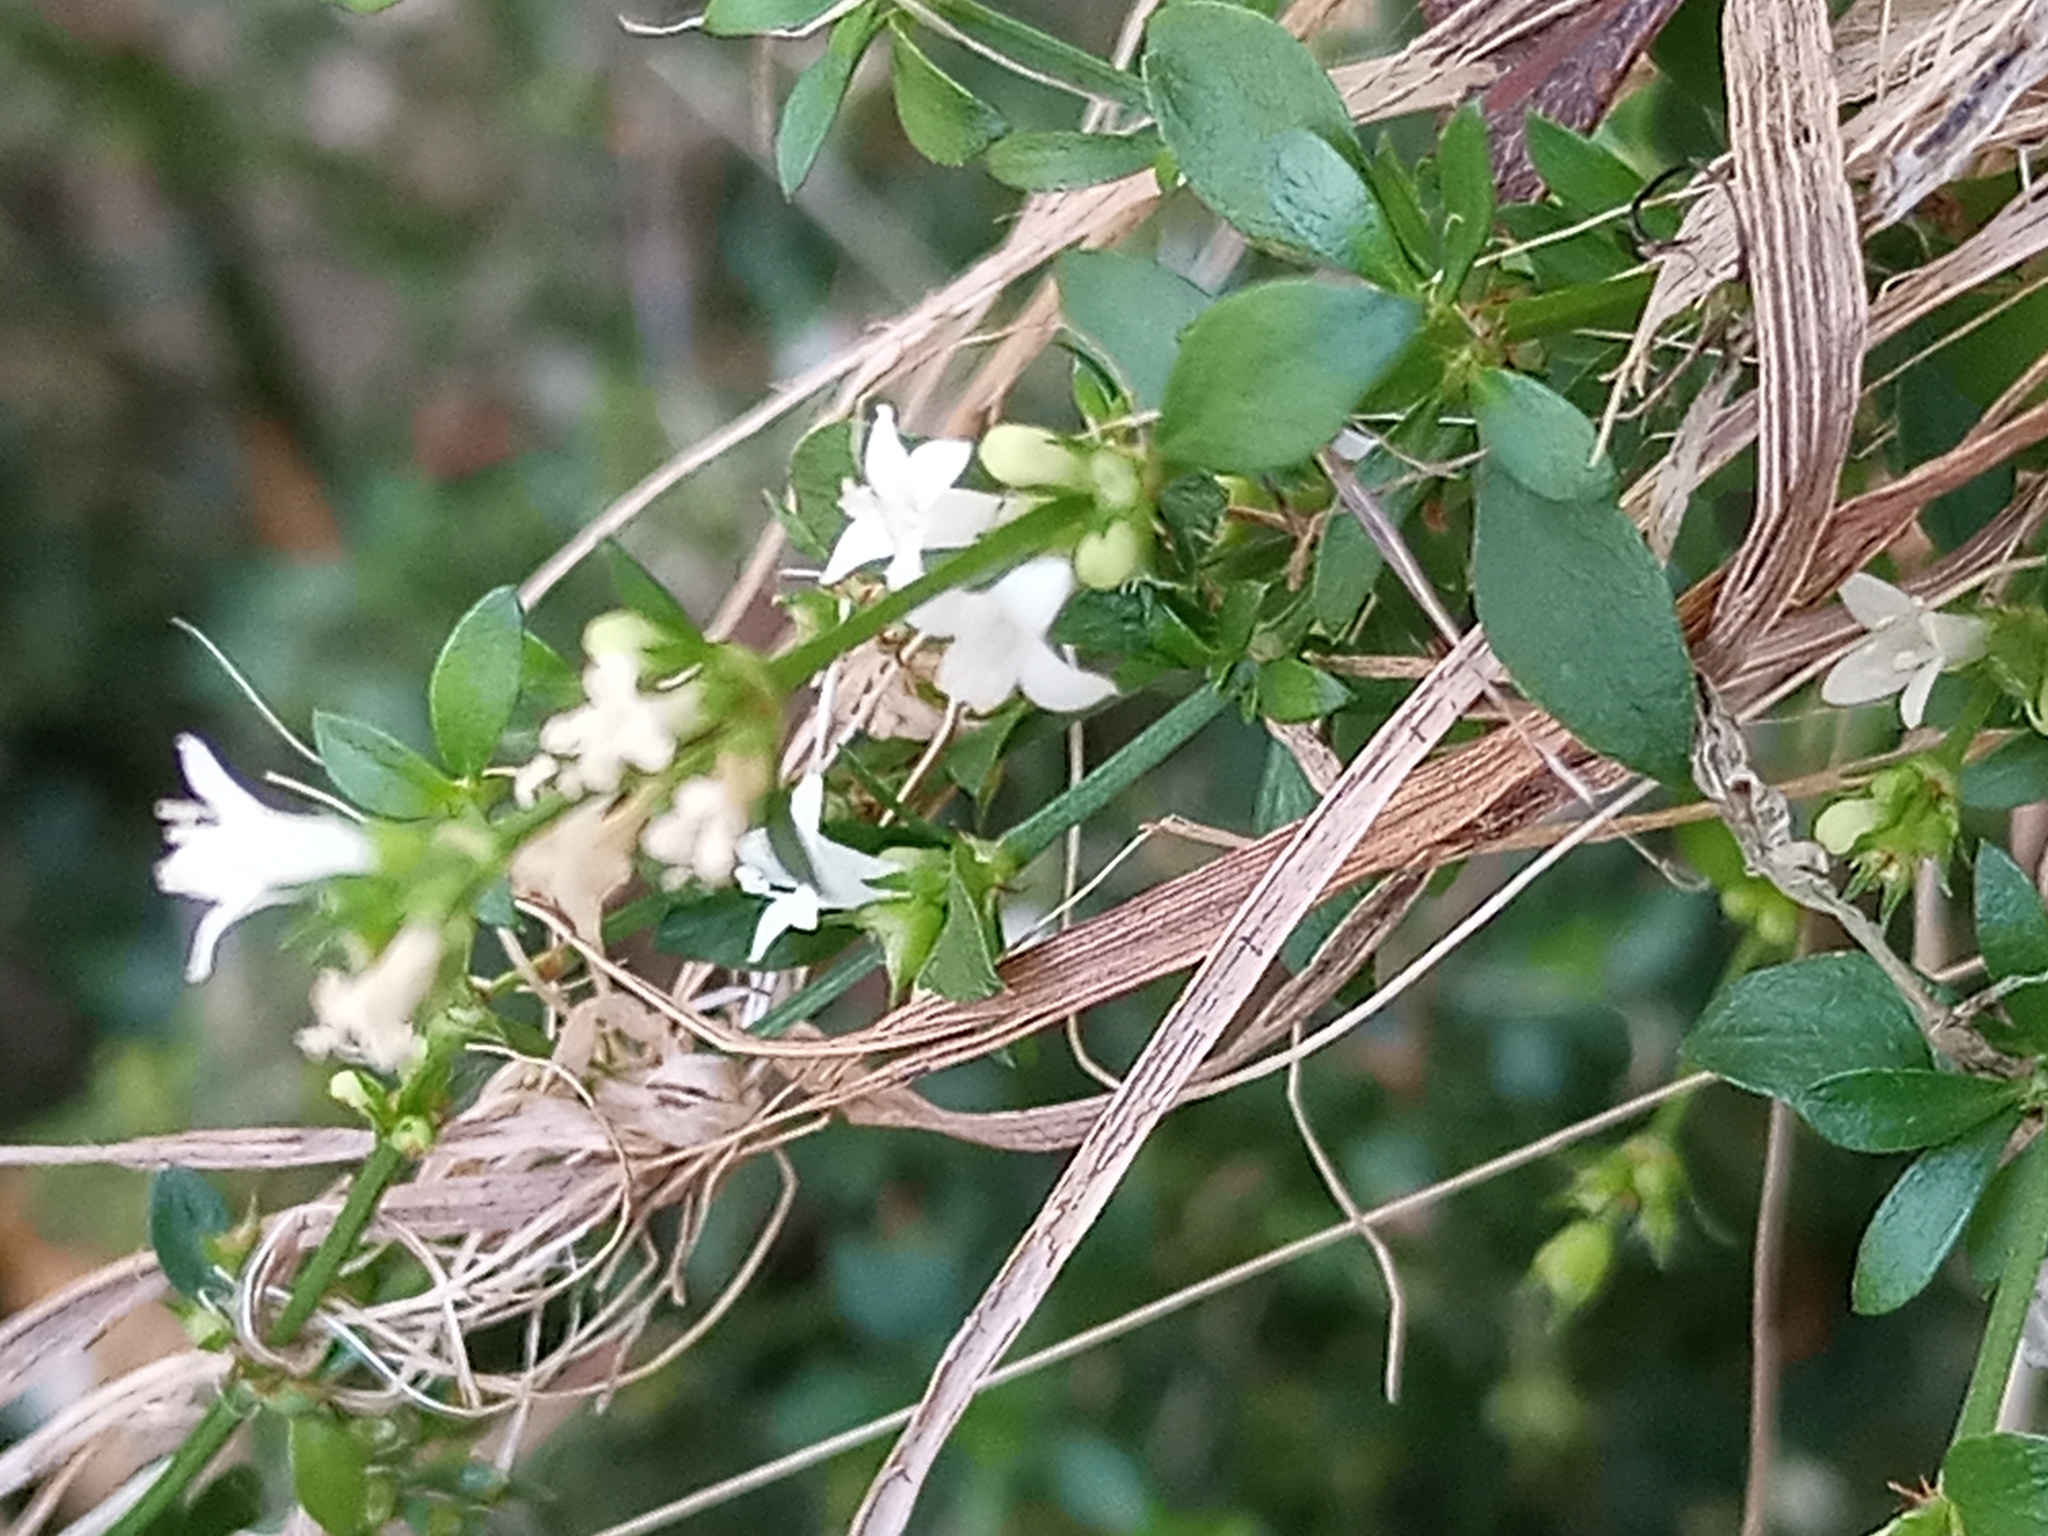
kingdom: Plantae
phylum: Tracheophyta
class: Magnoliopsida
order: Gentianales
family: Rubiaceae
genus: Galianthe
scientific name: Galianthe brasiliensis
